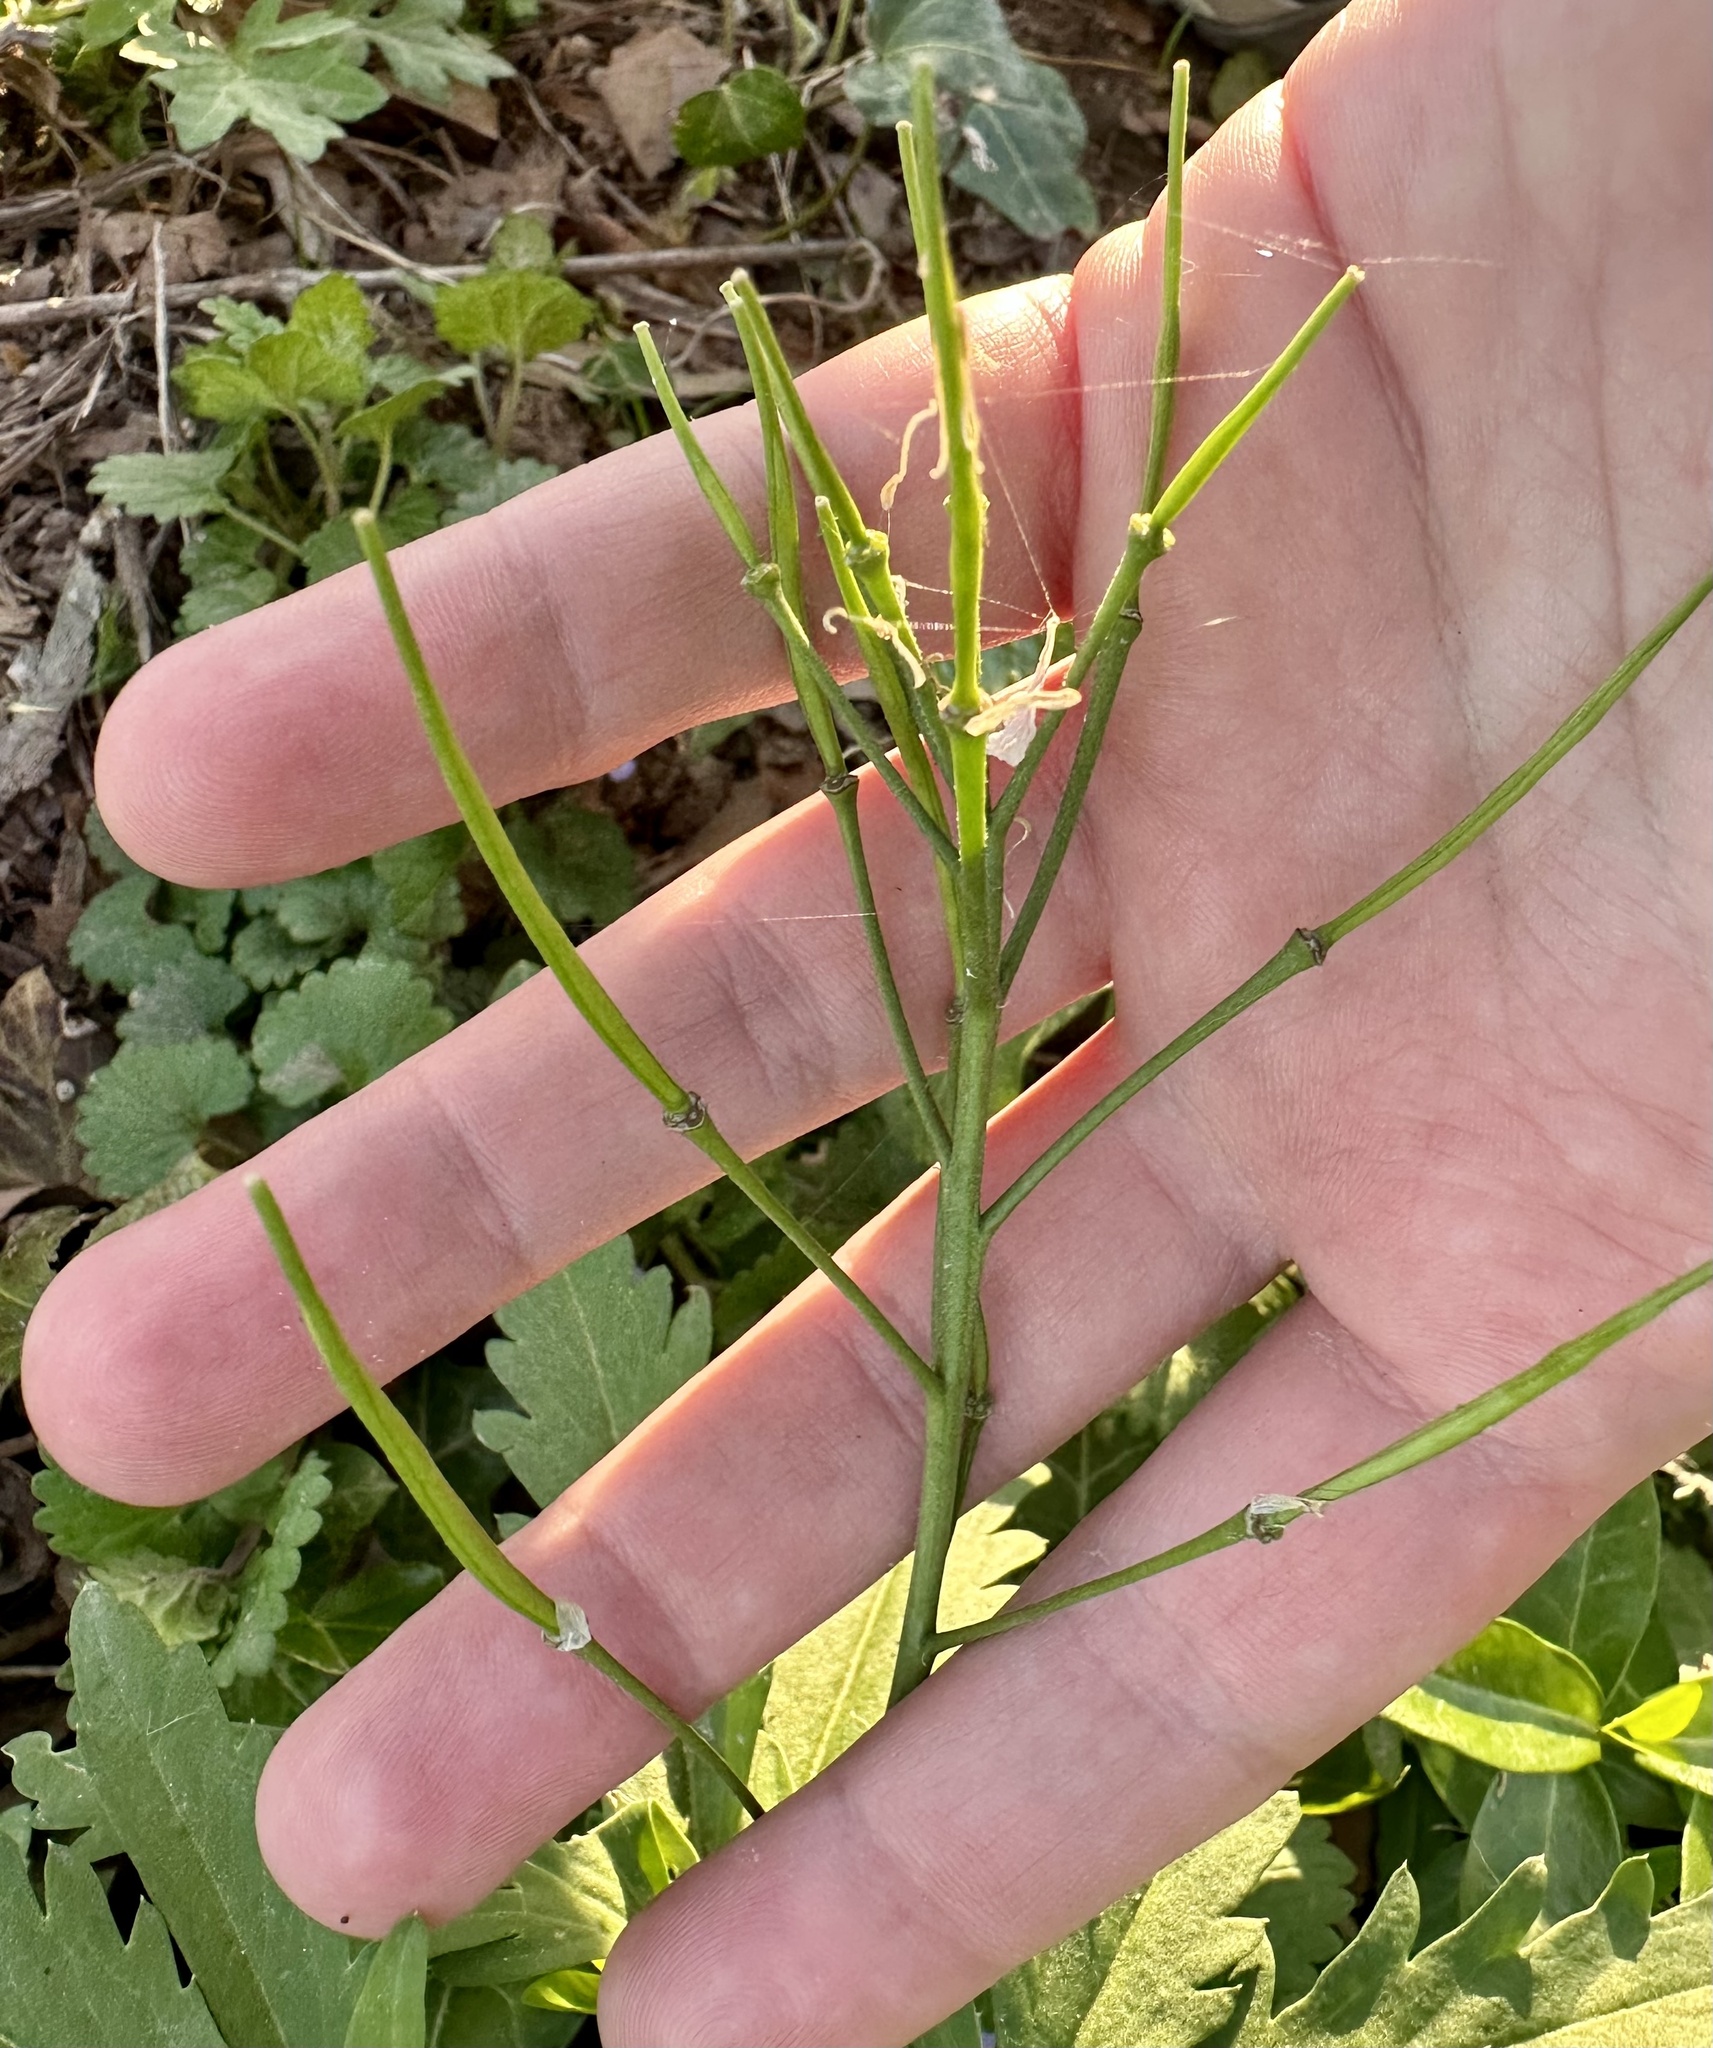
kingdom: Plantae
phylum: Tracheophyta
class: Magnoliopsida
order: Brassicales
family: Brassicaceae
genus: Cardamine
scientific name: Cardamine concatenata
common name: Cut-leaf toothcup
